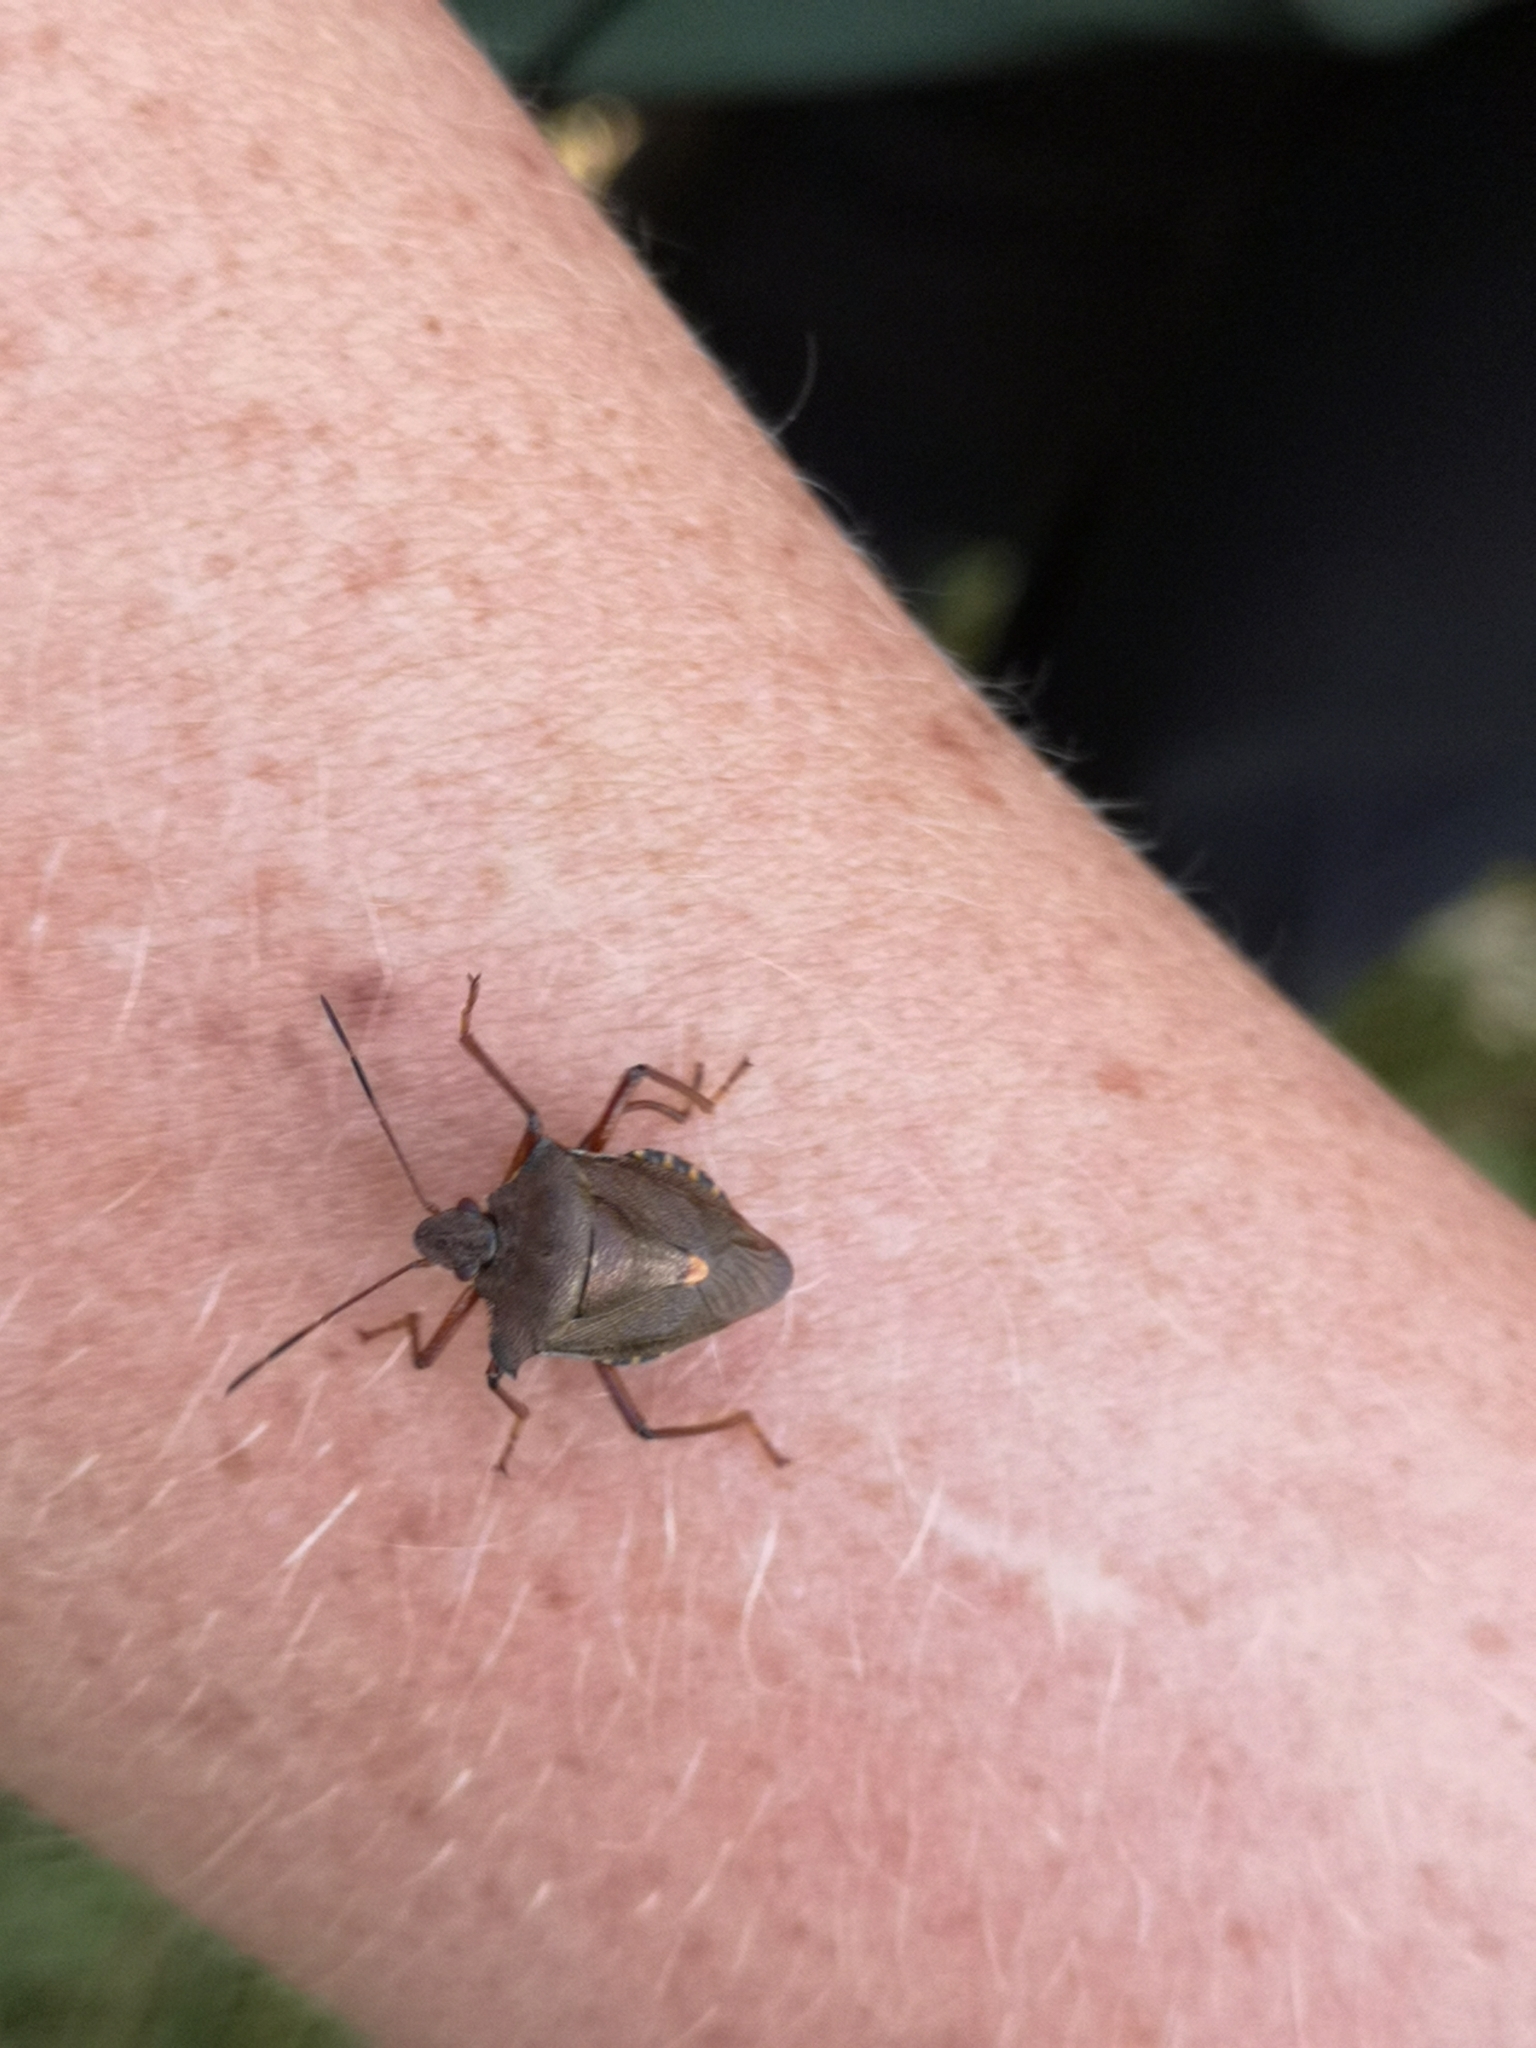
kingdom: Animalia
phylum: Arthropoda
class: Insecta
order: Hemiptera
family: Pentatomidae
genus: Pentatoma
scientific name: Pentatoma rufipes
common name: Forest bug
